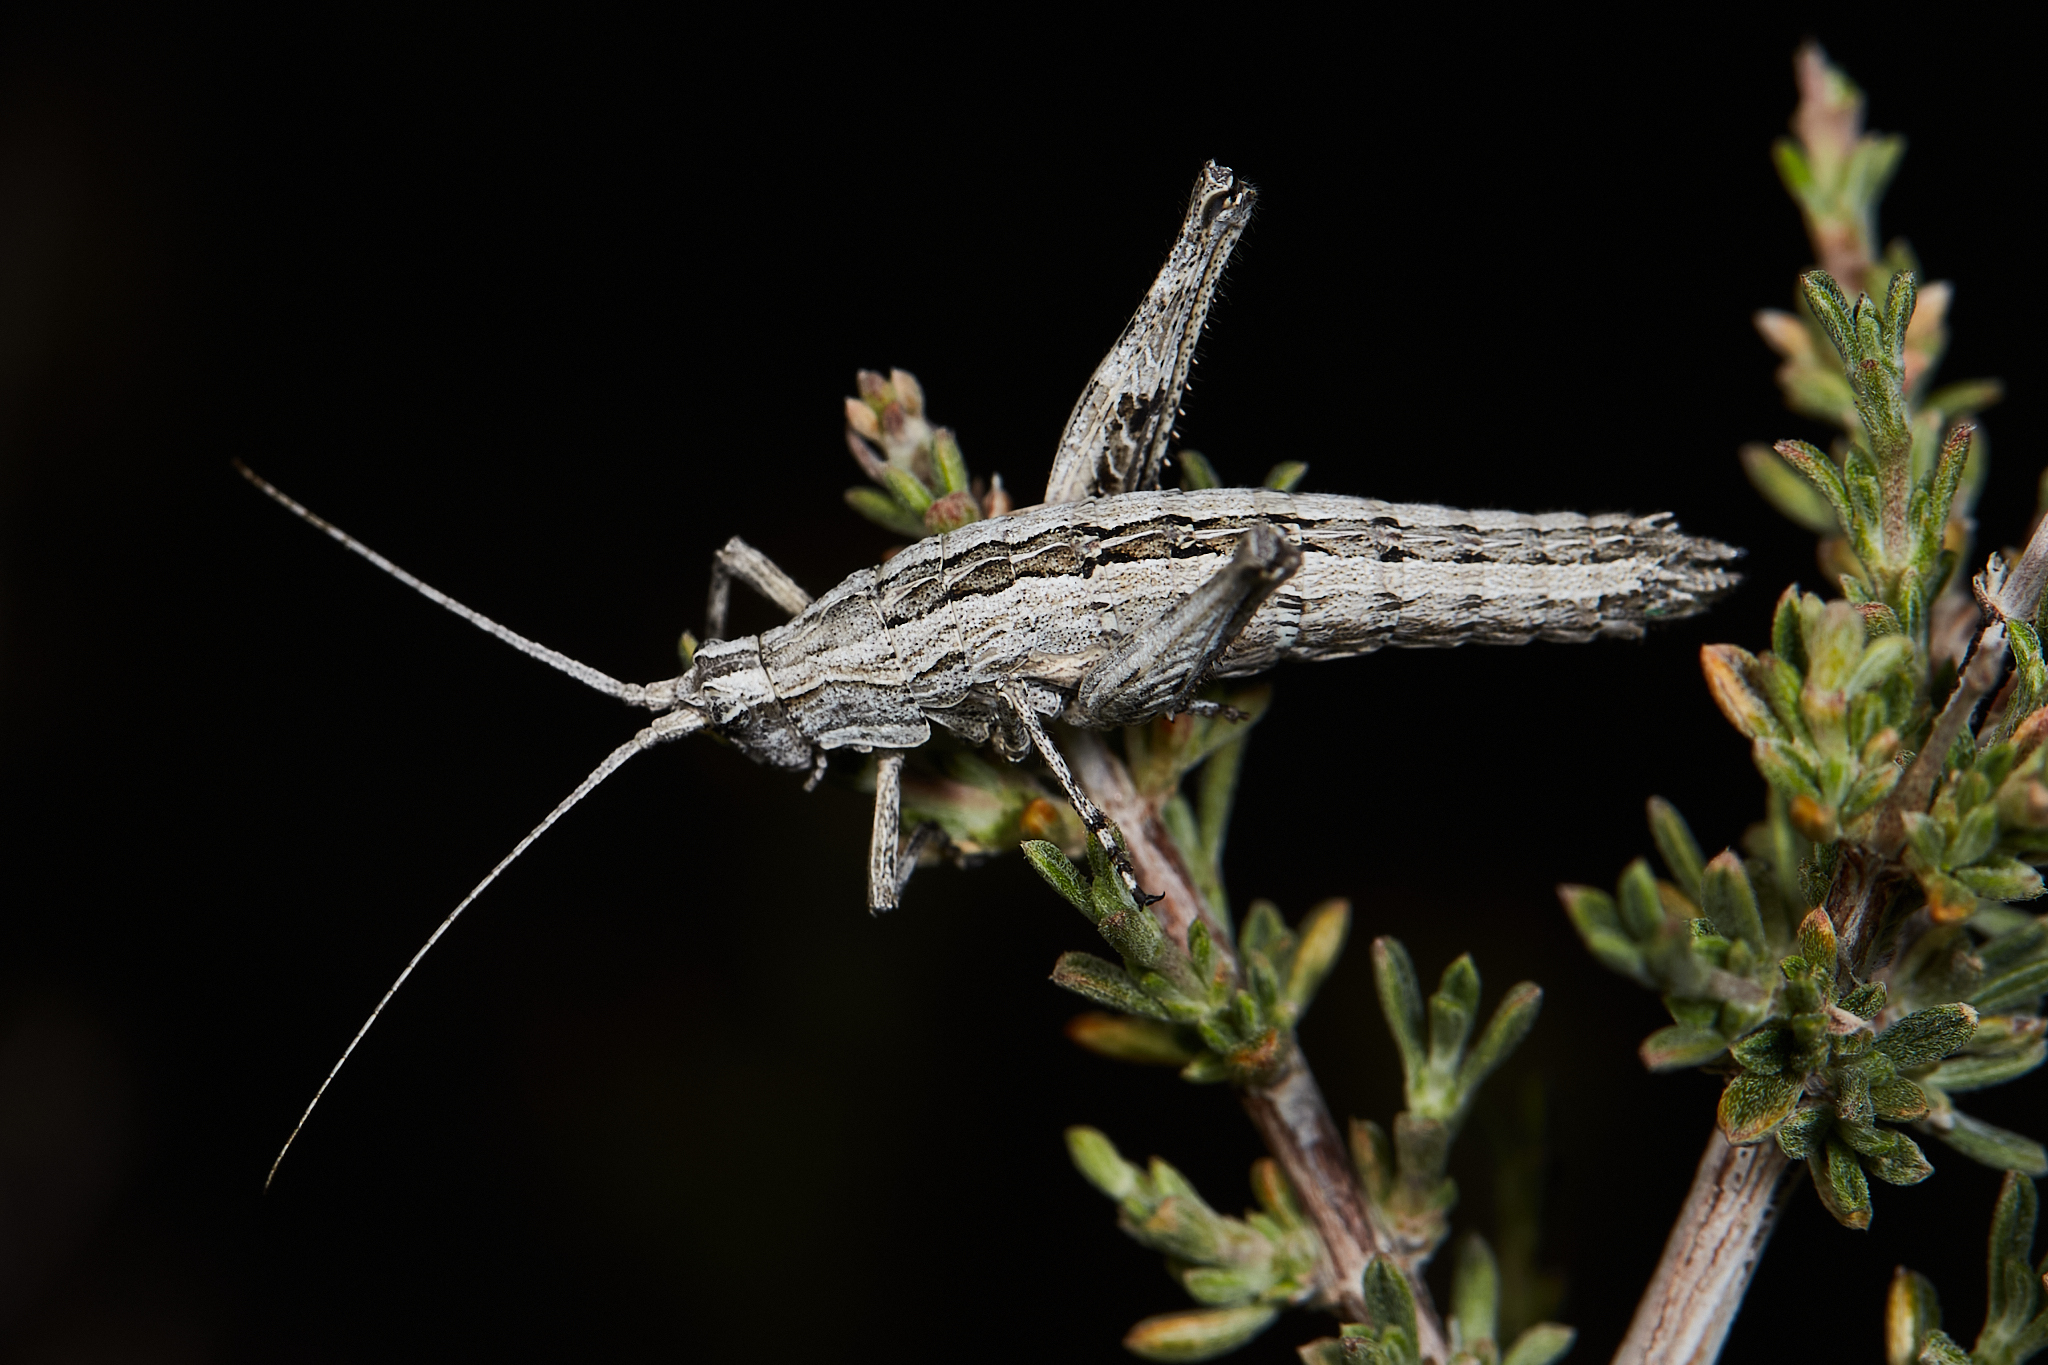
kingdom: Animalia
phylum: Arthropoda
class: Insecta
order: Orthoptera
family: Tanaoceridae
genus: Mohavacris
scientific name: Mohavacris timberlakei
